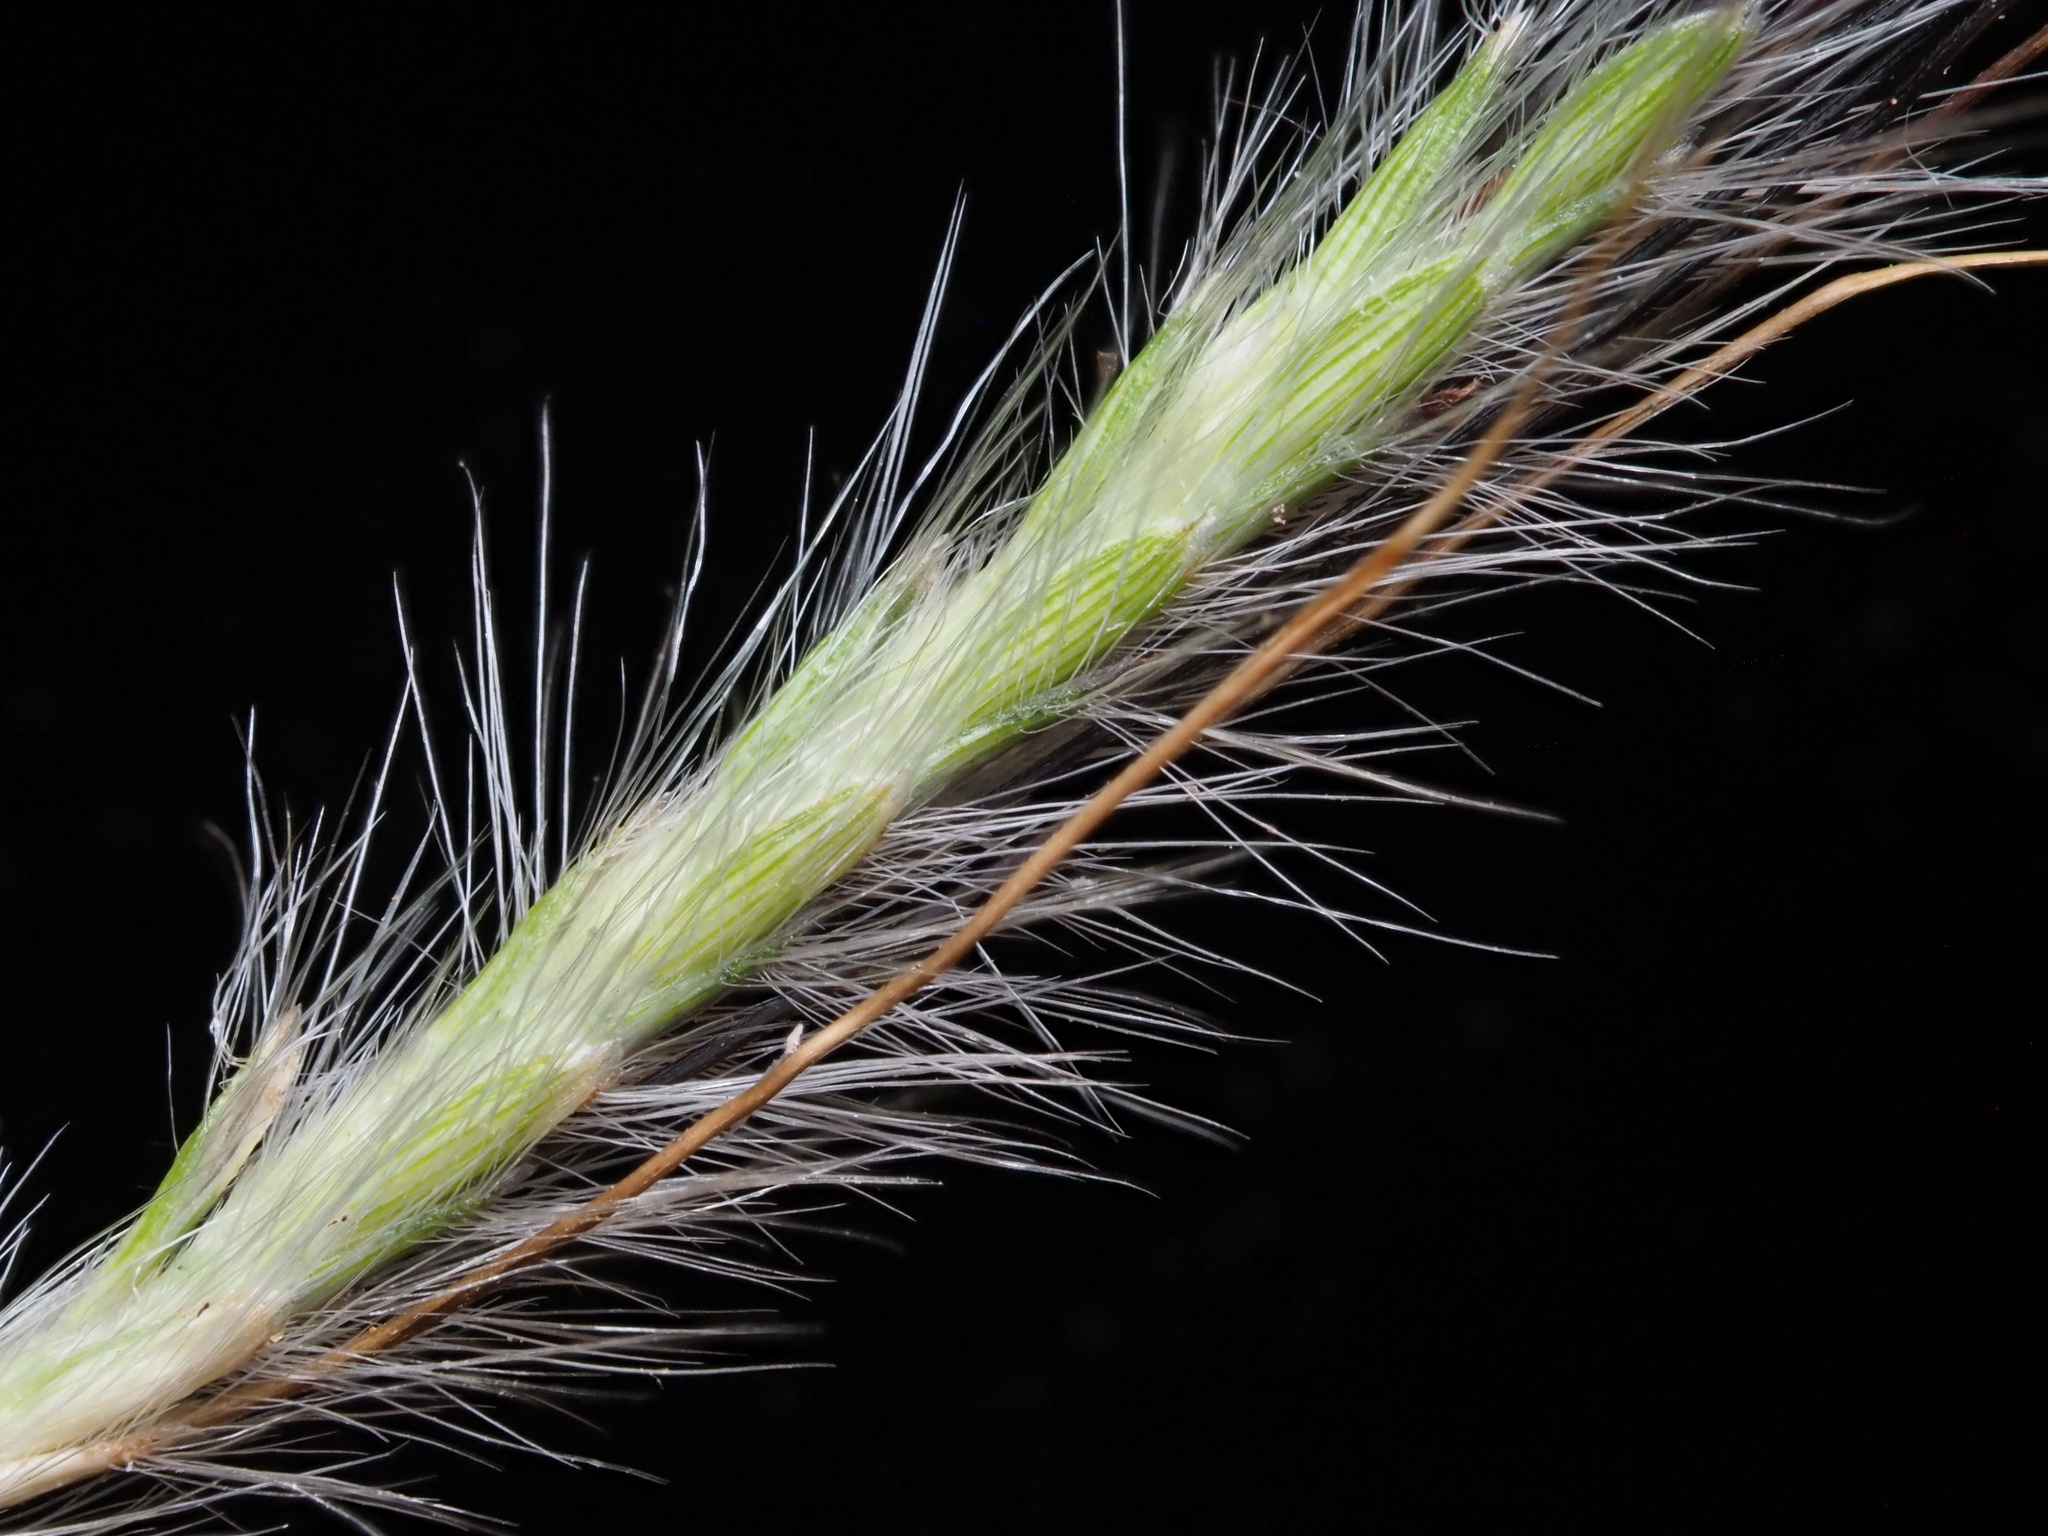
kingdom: Plantae
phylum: Tracheophyta
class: Liliopsida
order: Poales
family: Poaceae
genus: Dichanthium
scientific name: Dichanthium sericeum
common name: Silky bluestem
